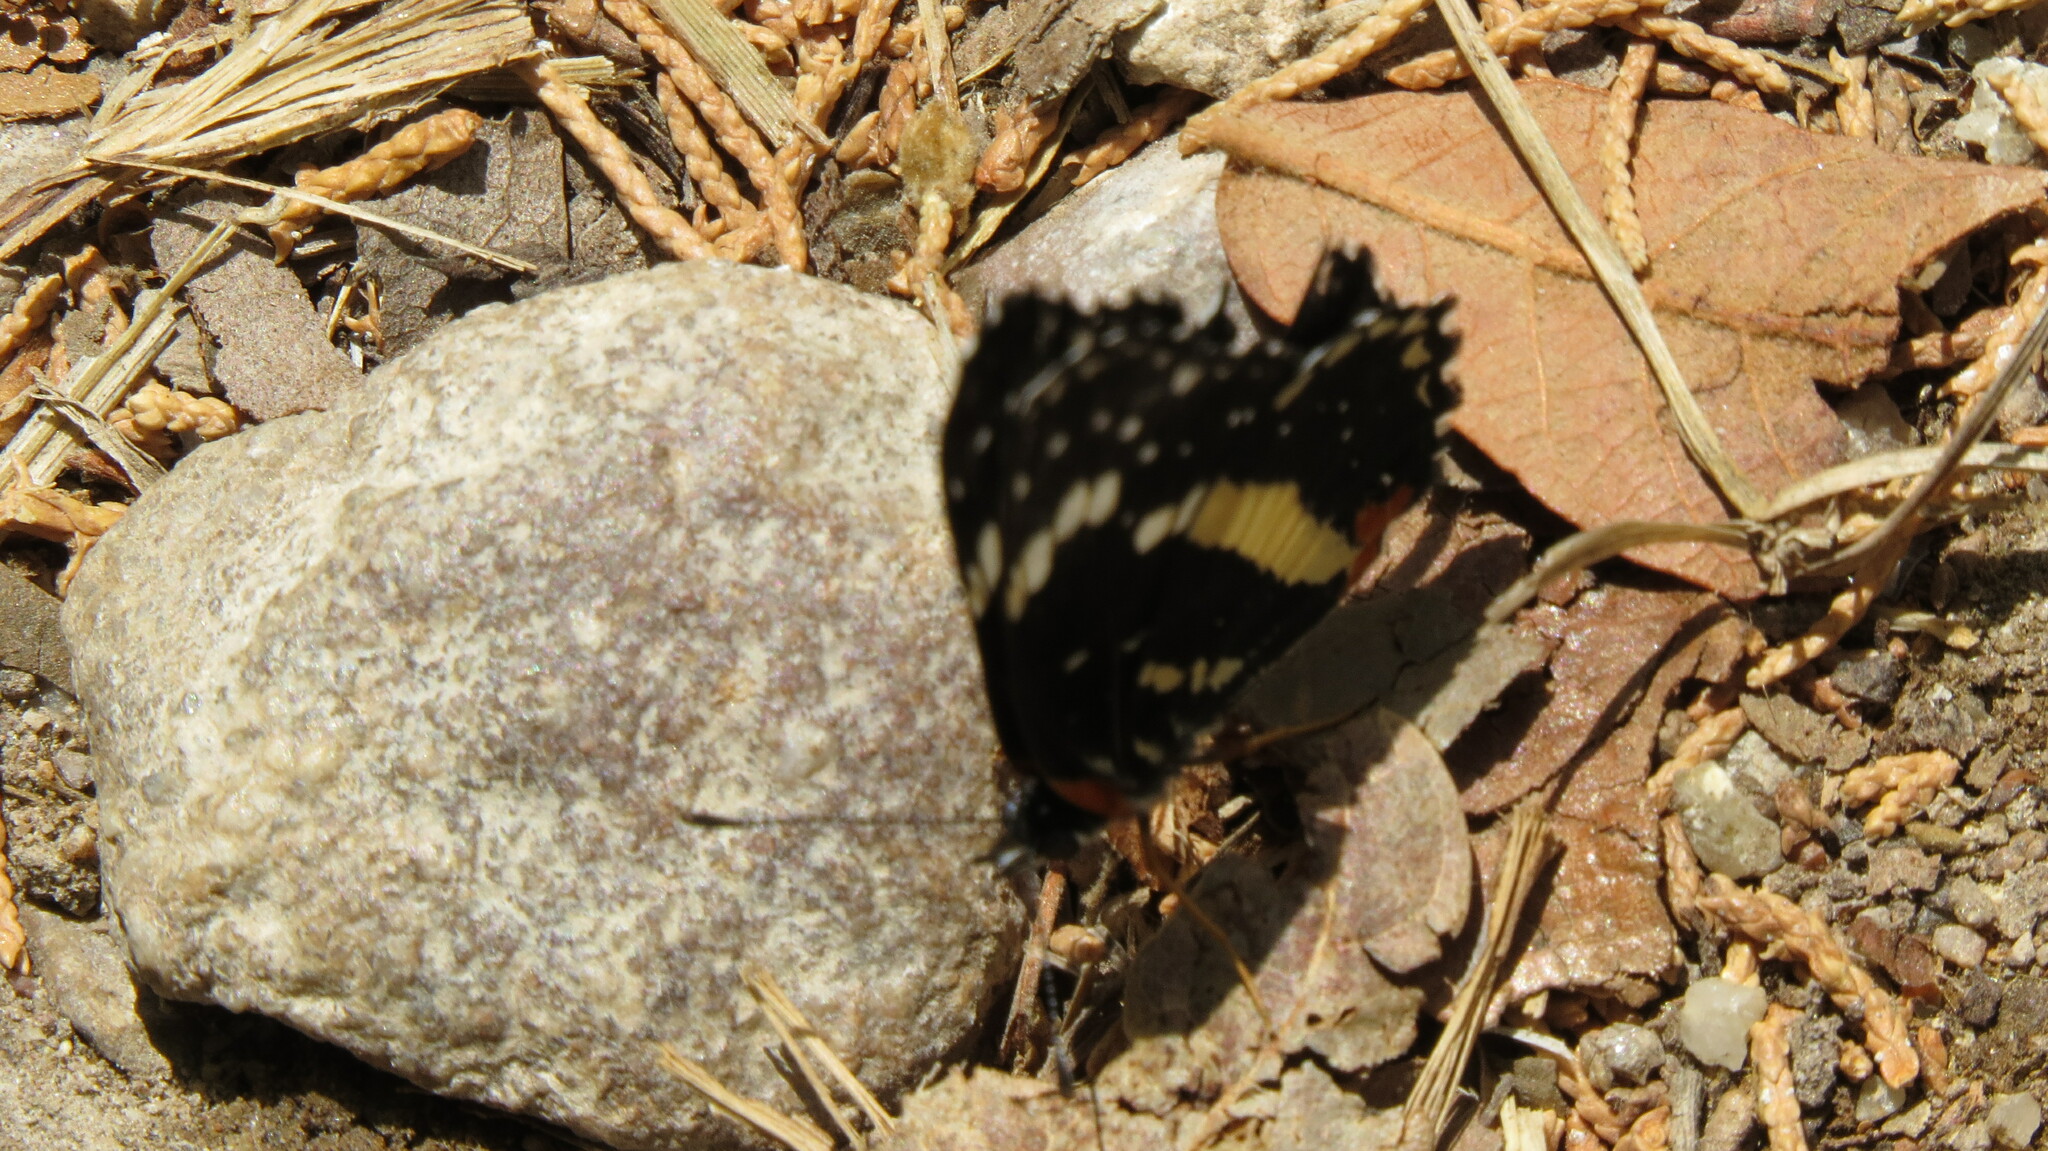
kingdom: Animalia
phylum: Arthropoda
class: Insecta
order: Lepidoptera
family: Nymphalidae
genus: Chlosyne
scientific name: Chlosyne lacinia
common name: Bordered patch
